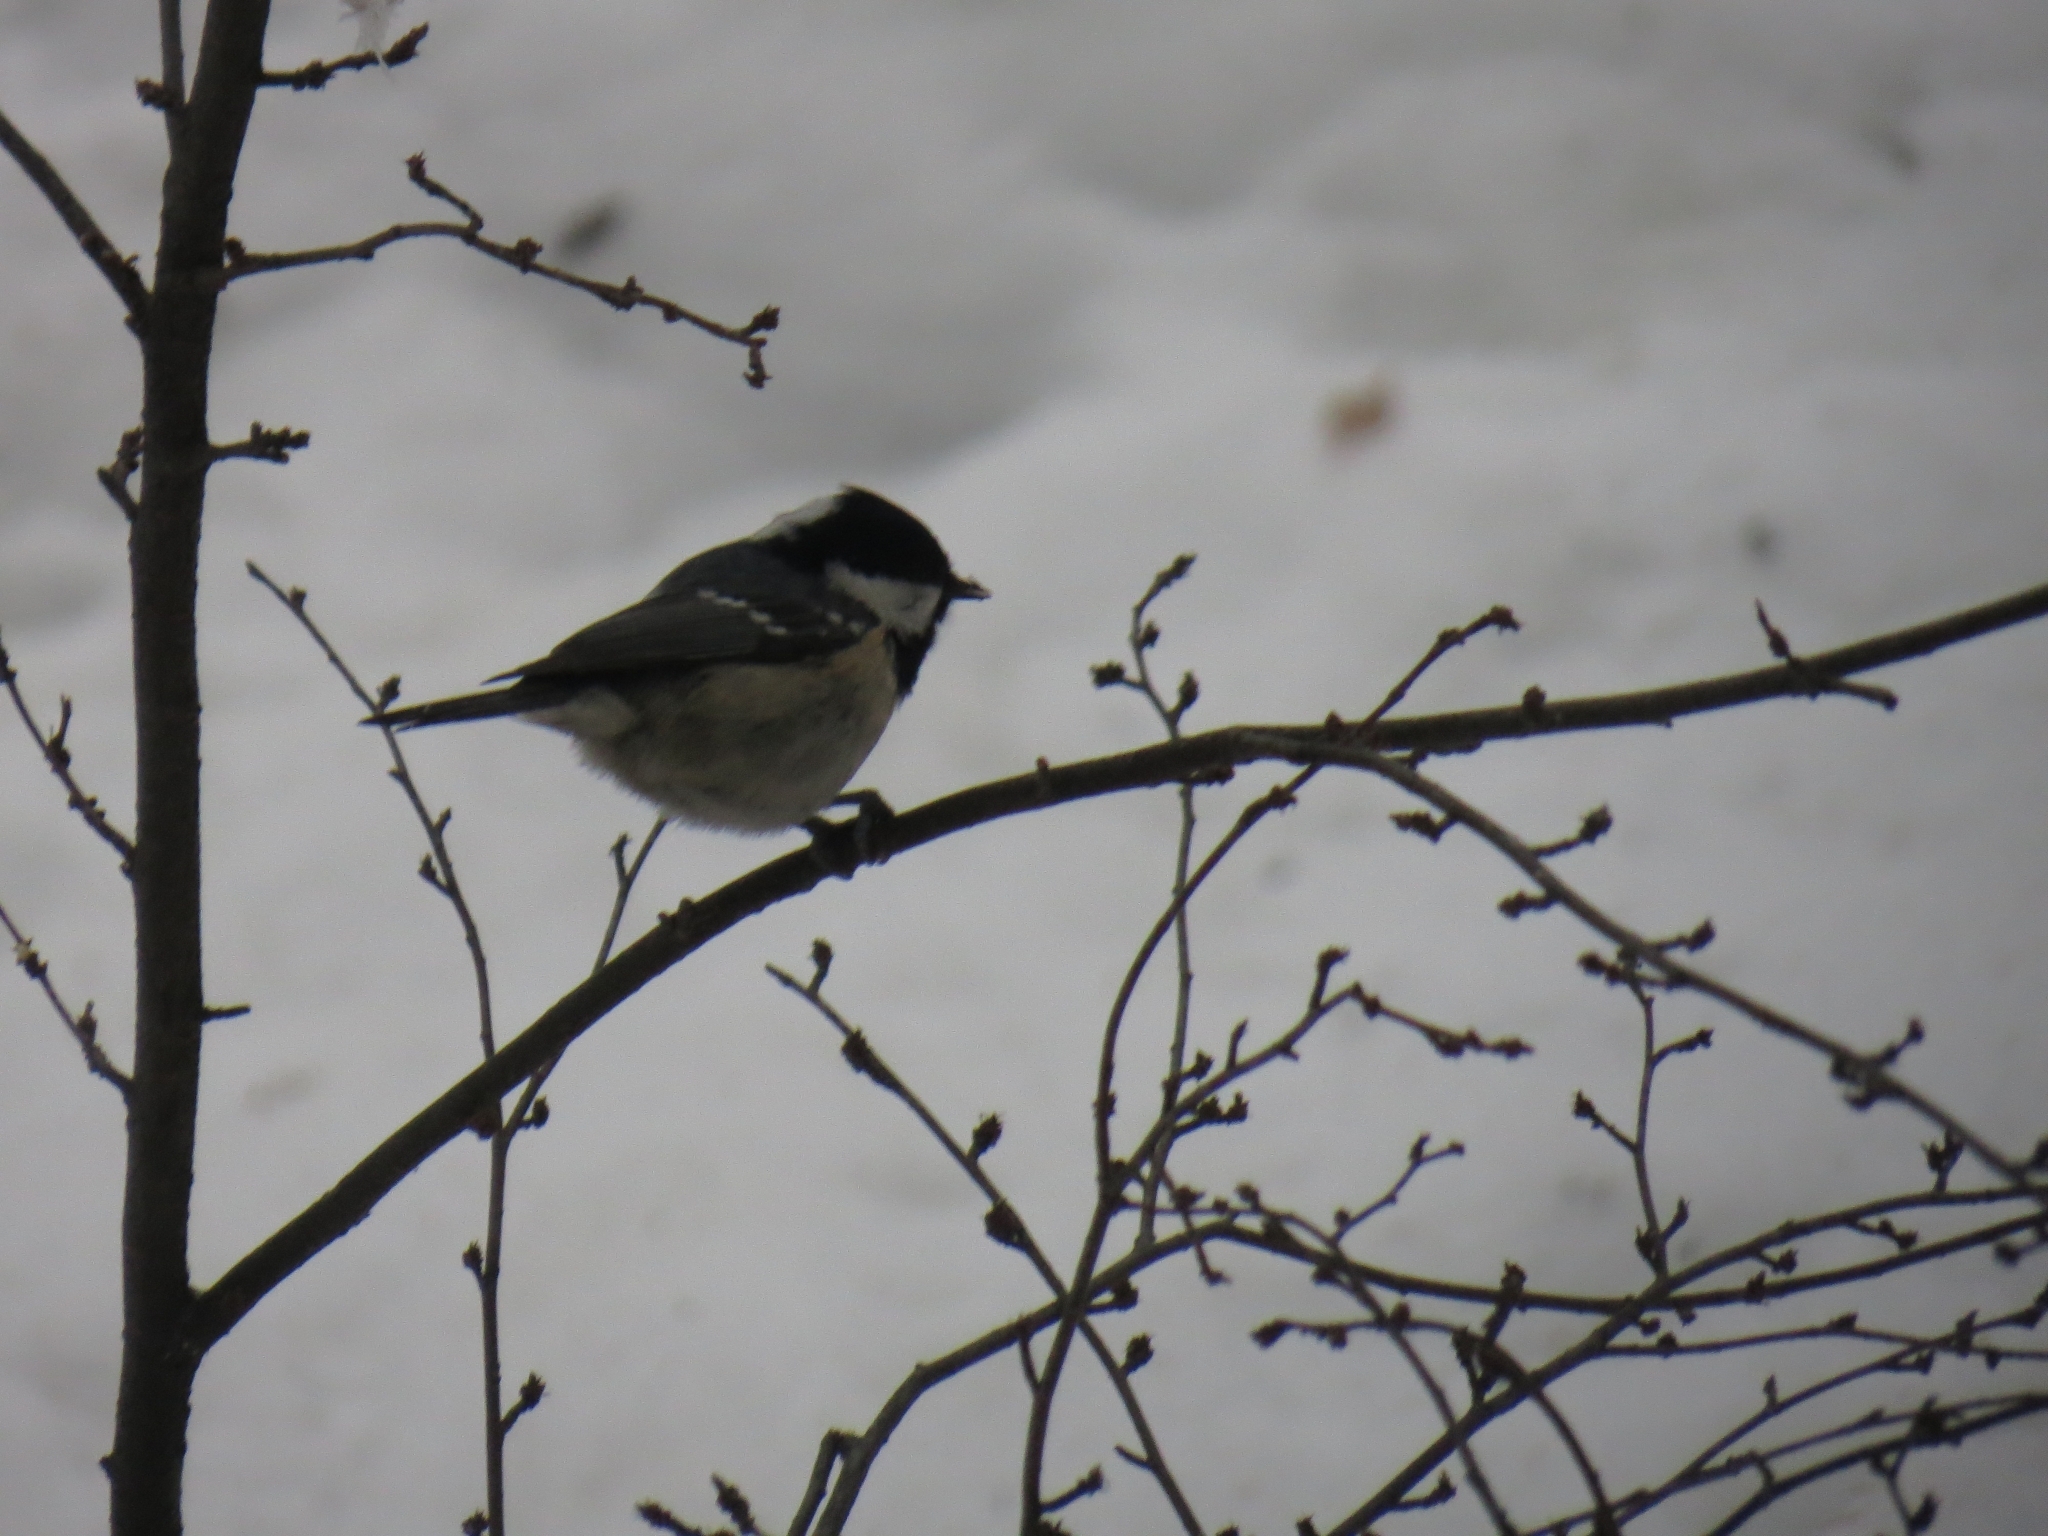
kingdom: Animalia
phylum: Chordata
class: Aves
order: Passeriformes
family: Paridae
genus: Periparus
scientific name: Periparus ater
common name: Coal tit
